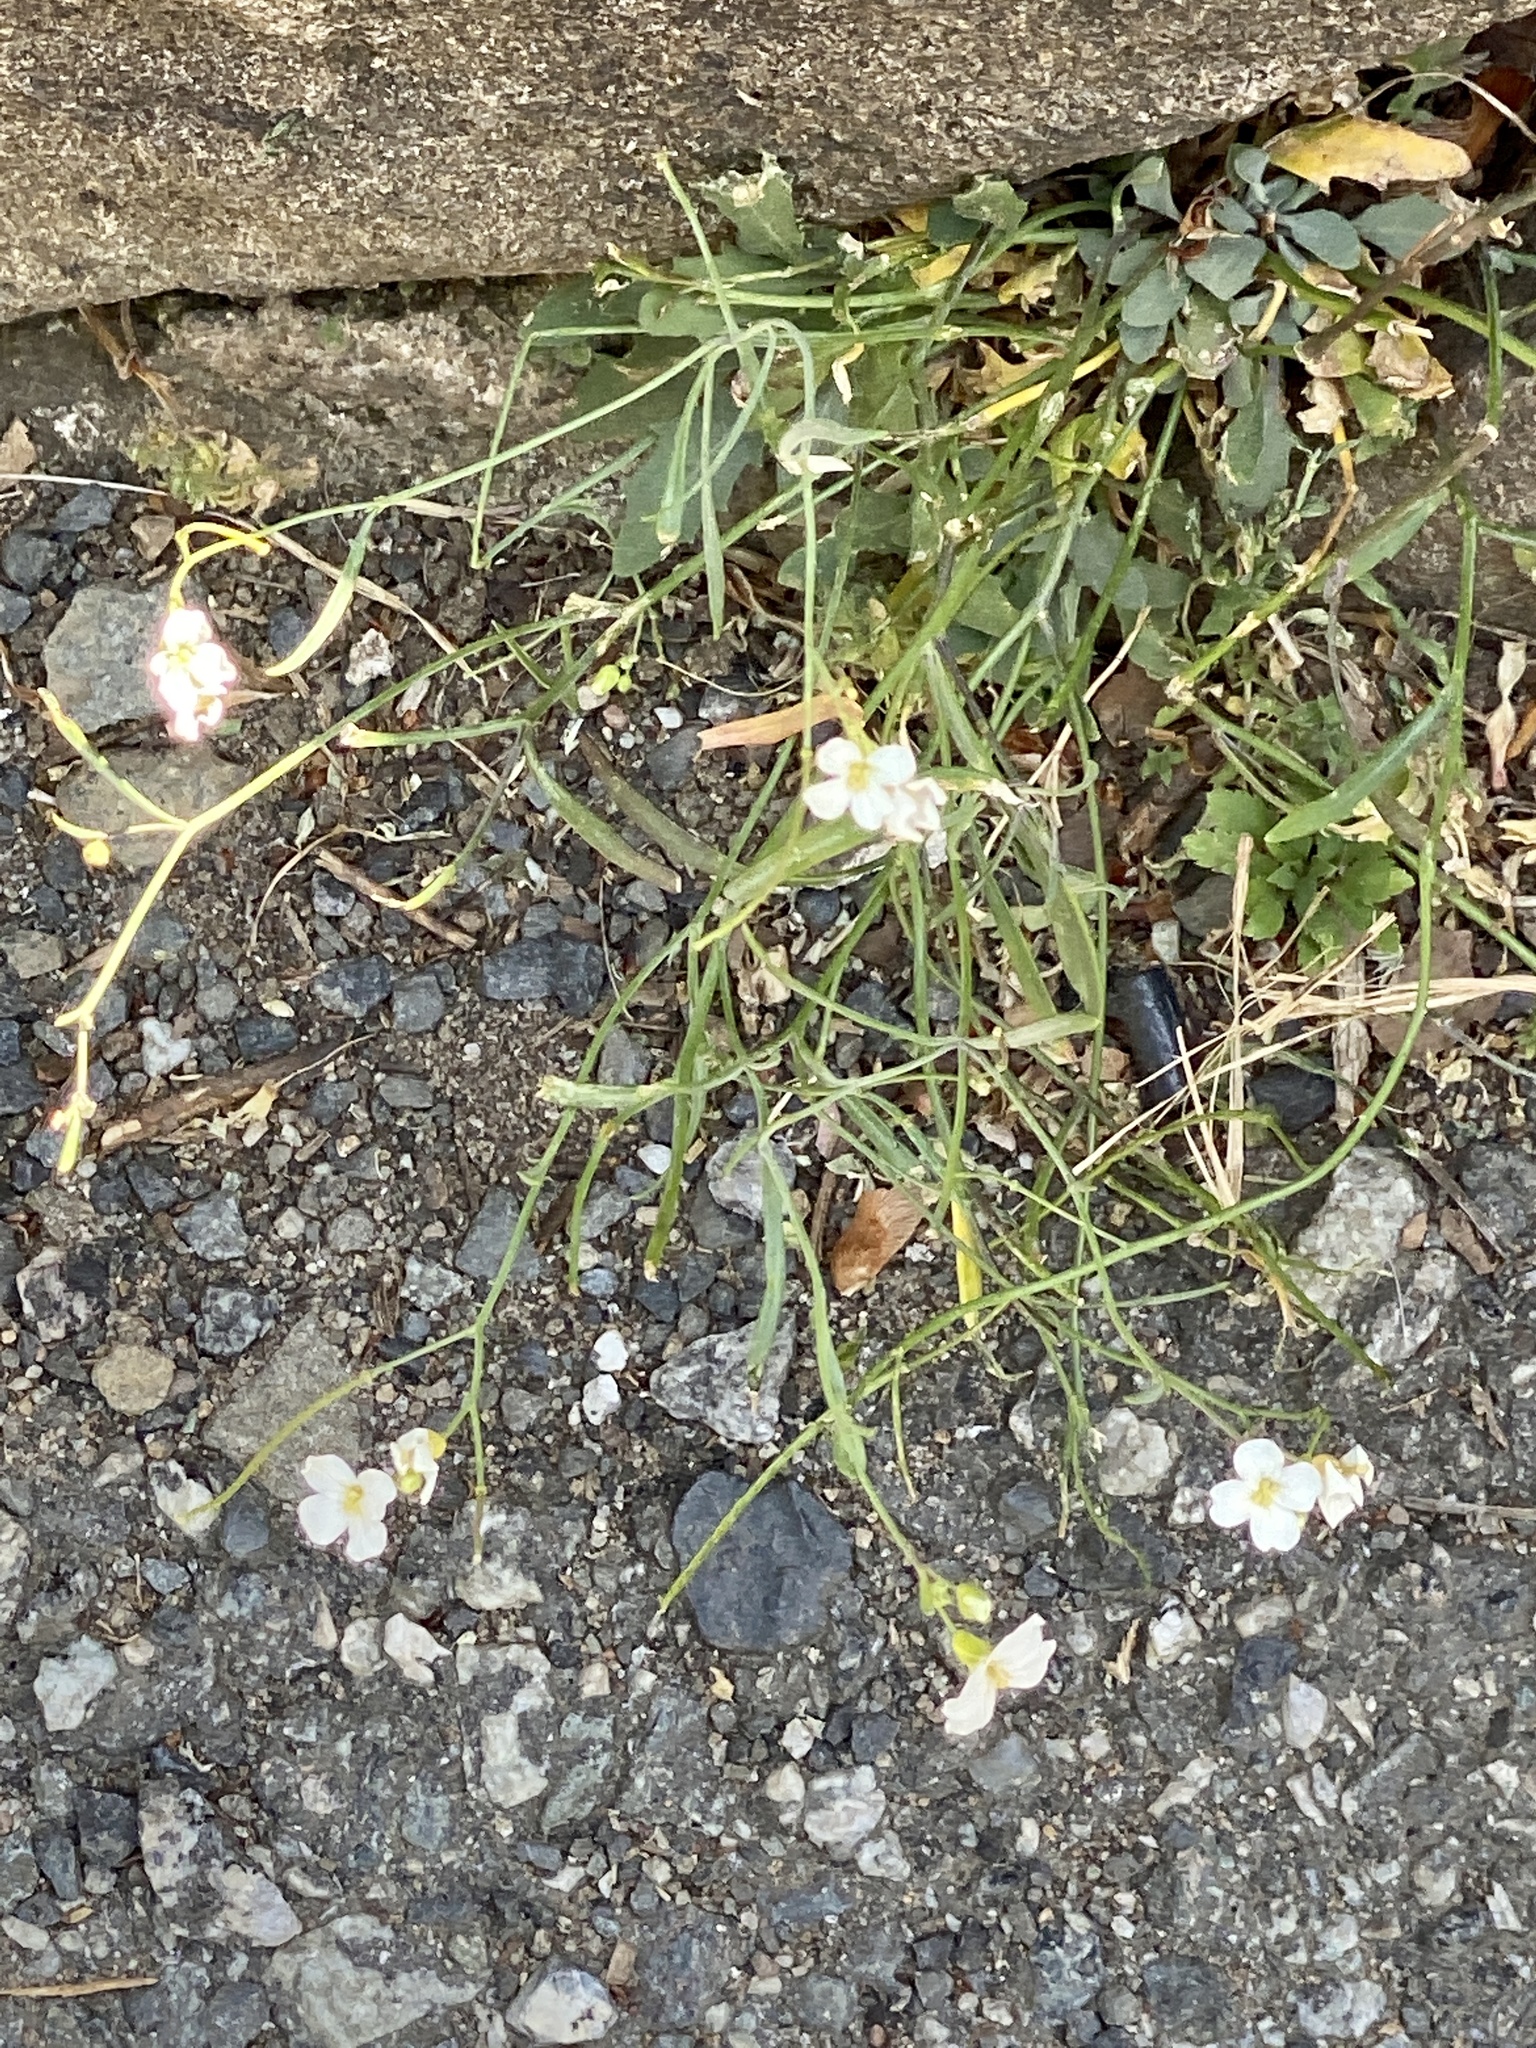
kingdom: Plantae
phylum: Tracheophyta
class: Magnoliopsida
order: Brassicales
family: Brassicaceae
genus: Arabidopsis
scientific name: Arabidopsis lyrata
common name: Lyrate rockcress
